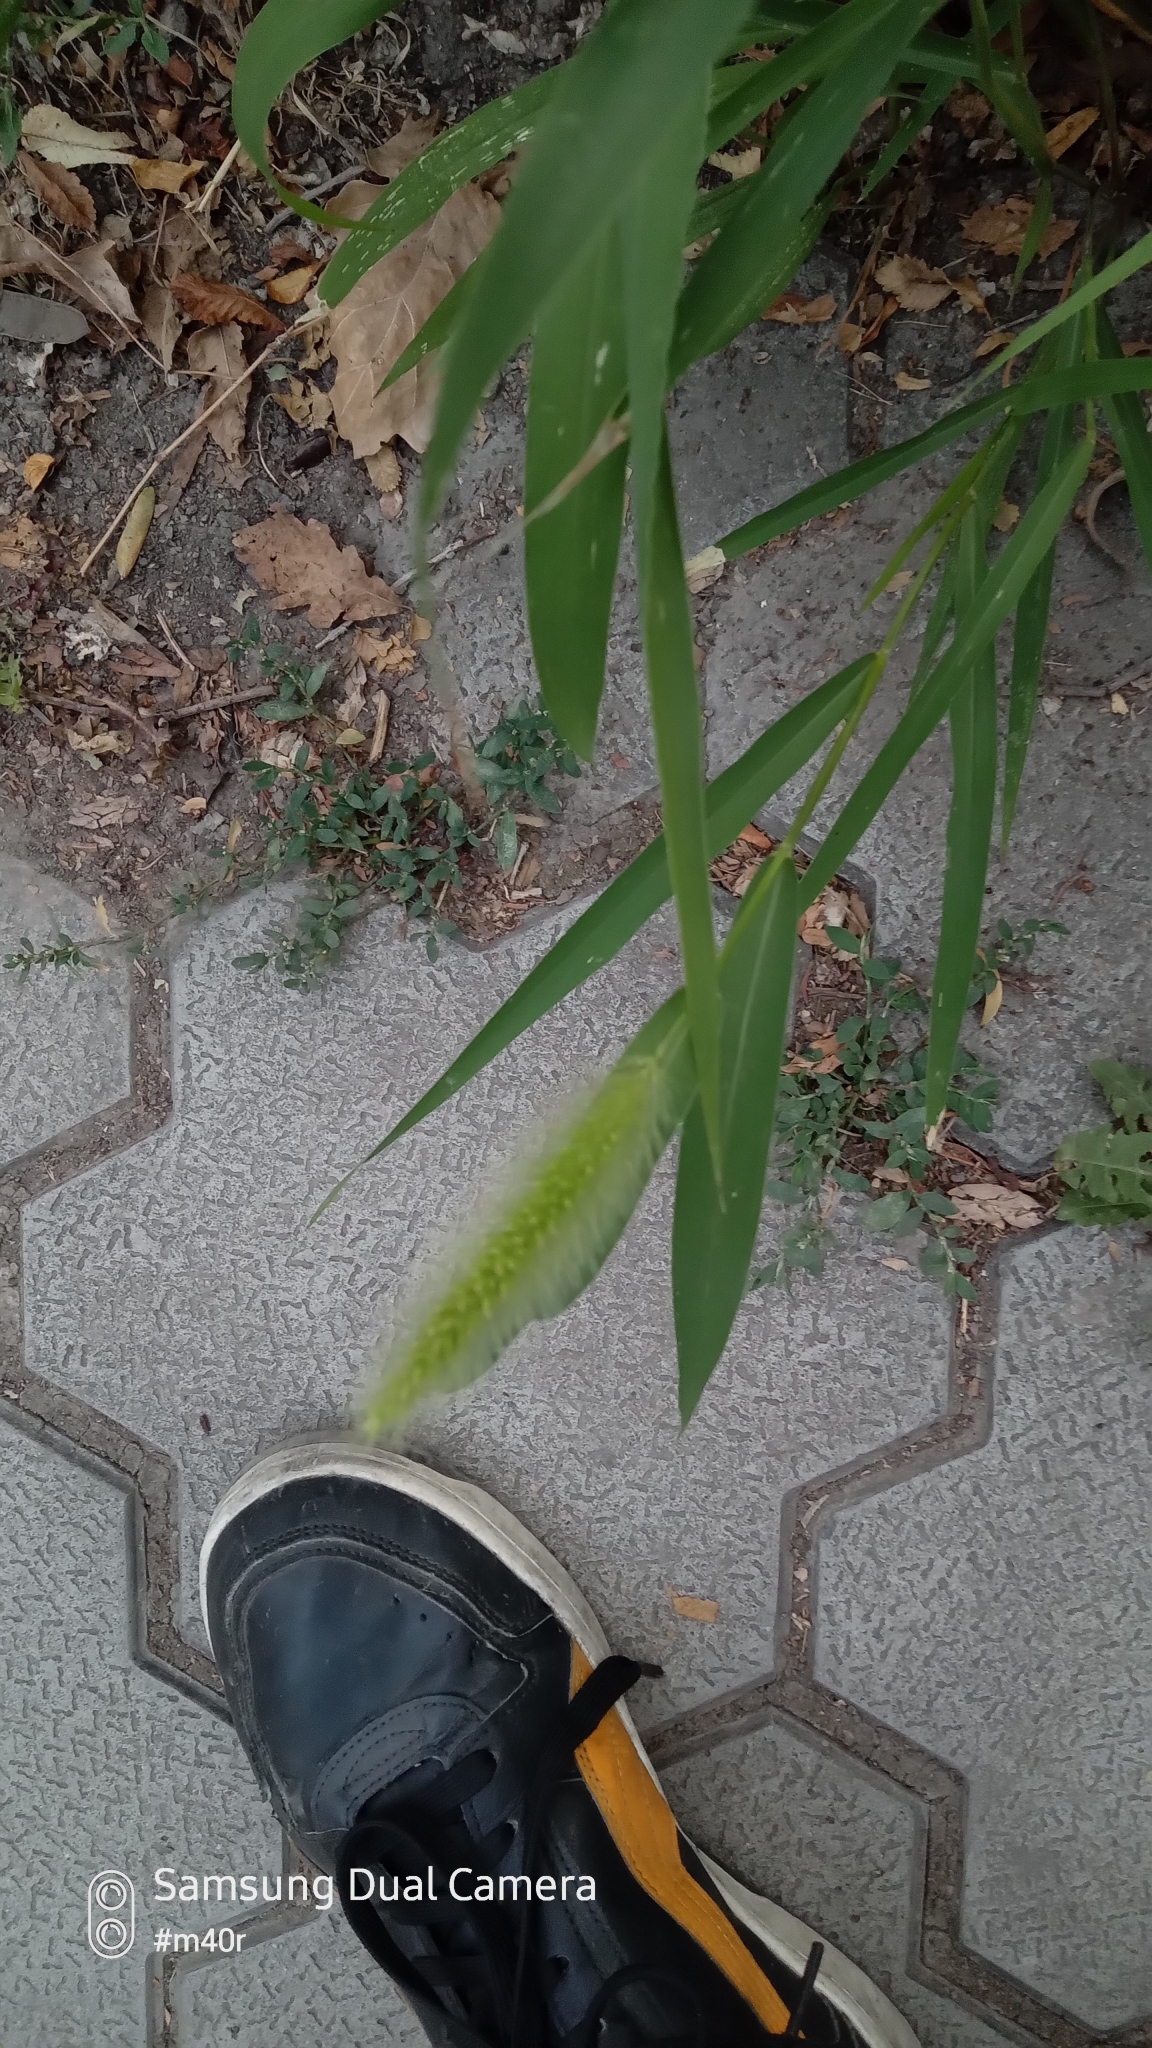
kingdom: Plantae
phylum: Tracheophyta
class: Liliopsida
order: Poales
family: Poaceae
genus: Setaria
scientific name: Setaria viridis
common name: Green bristlegrass
